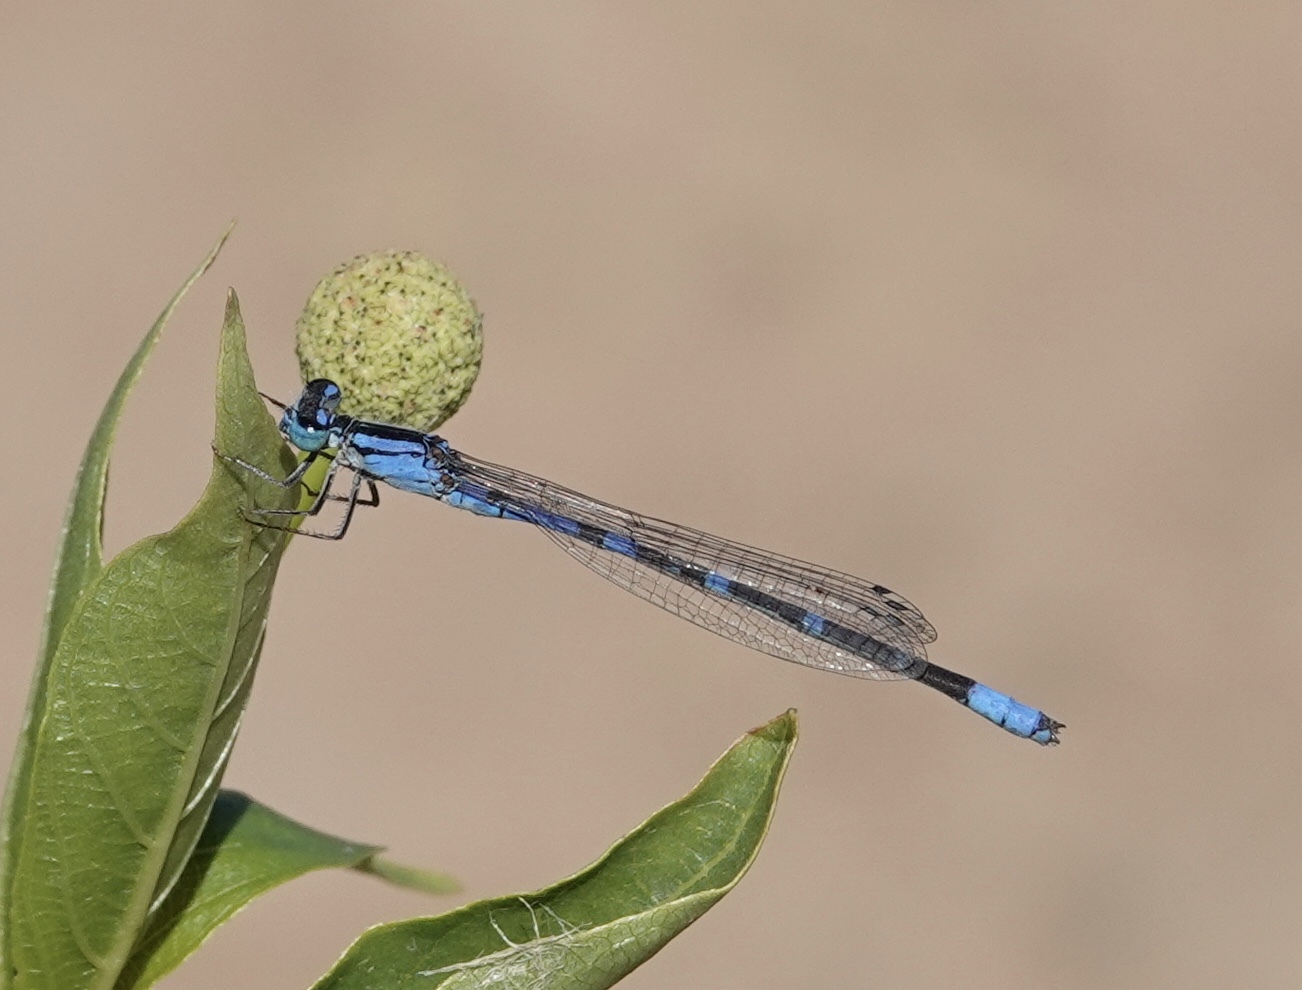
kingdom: Animalia
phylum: Arthropoda
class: Insecta
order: Odonata
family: Coenagrionidae
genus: Enallagma
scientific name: Enallagma praevarum
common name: Arroyo bluet
